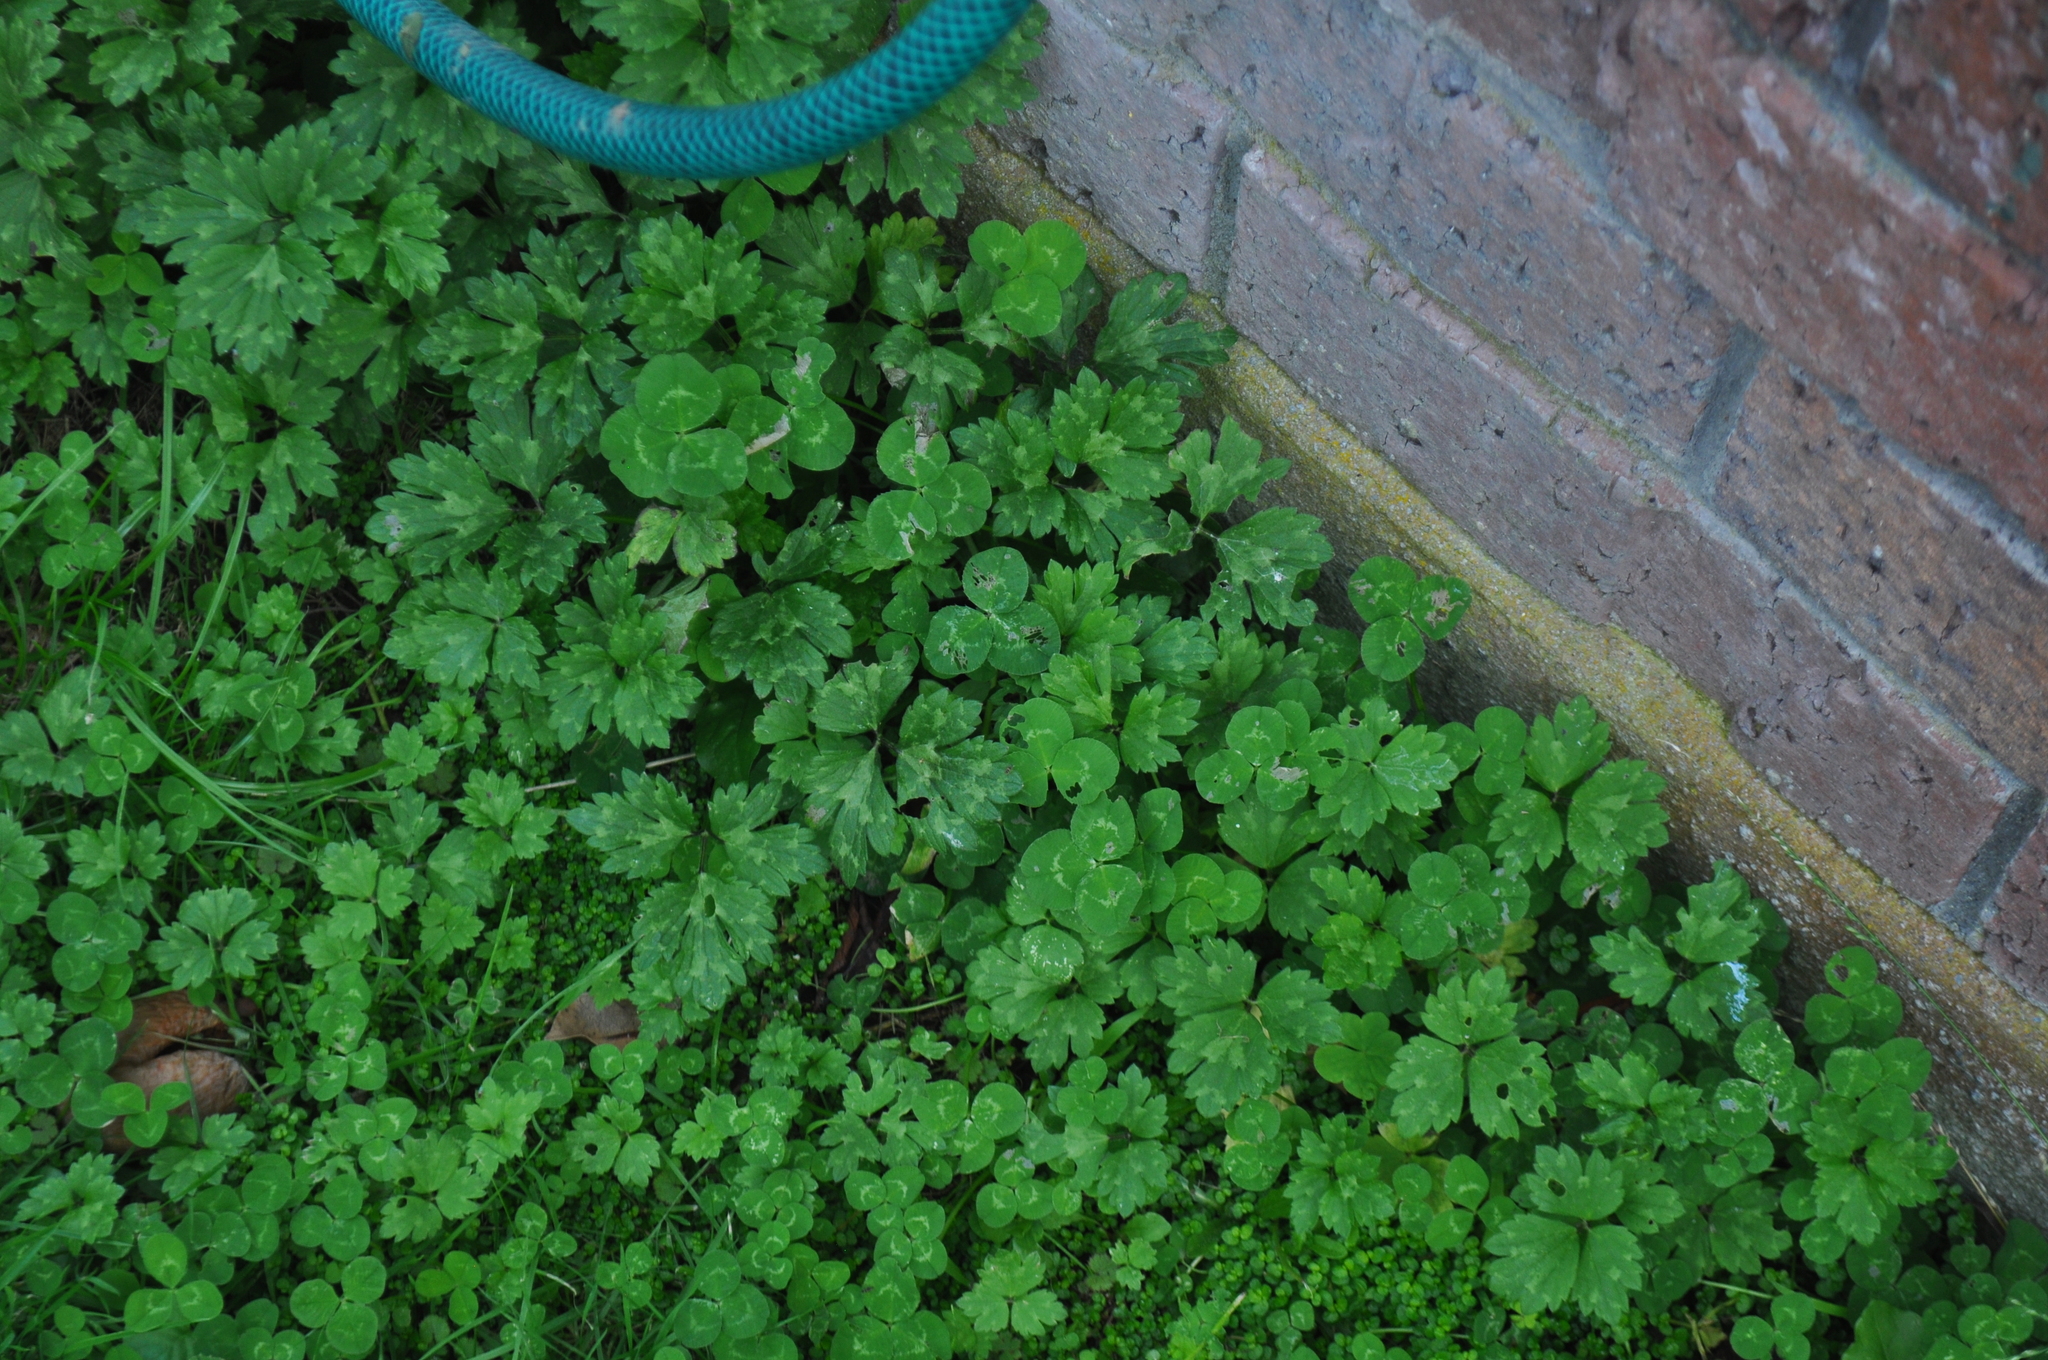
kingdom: Plantae
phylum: Tracheophyta
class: Magnoliopsida
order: Ranunculales
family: Ranunculaceae
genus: Ranunculus
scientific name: Ranunculus repens
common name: Creeping buttercup
